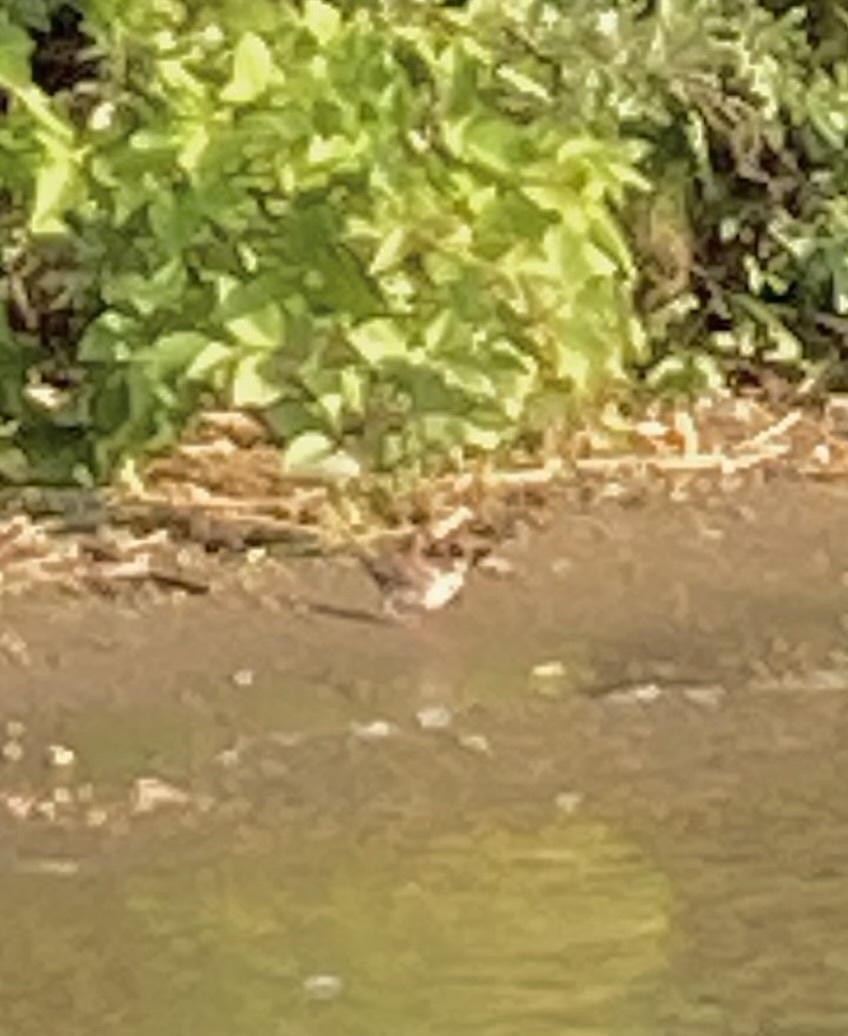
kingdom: Animalia
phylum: Chordata
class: Aves
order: Passeriformes
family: Troglodytidae
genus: Cistothorus
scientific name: Cistothorus palustris
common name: Marsh wren
